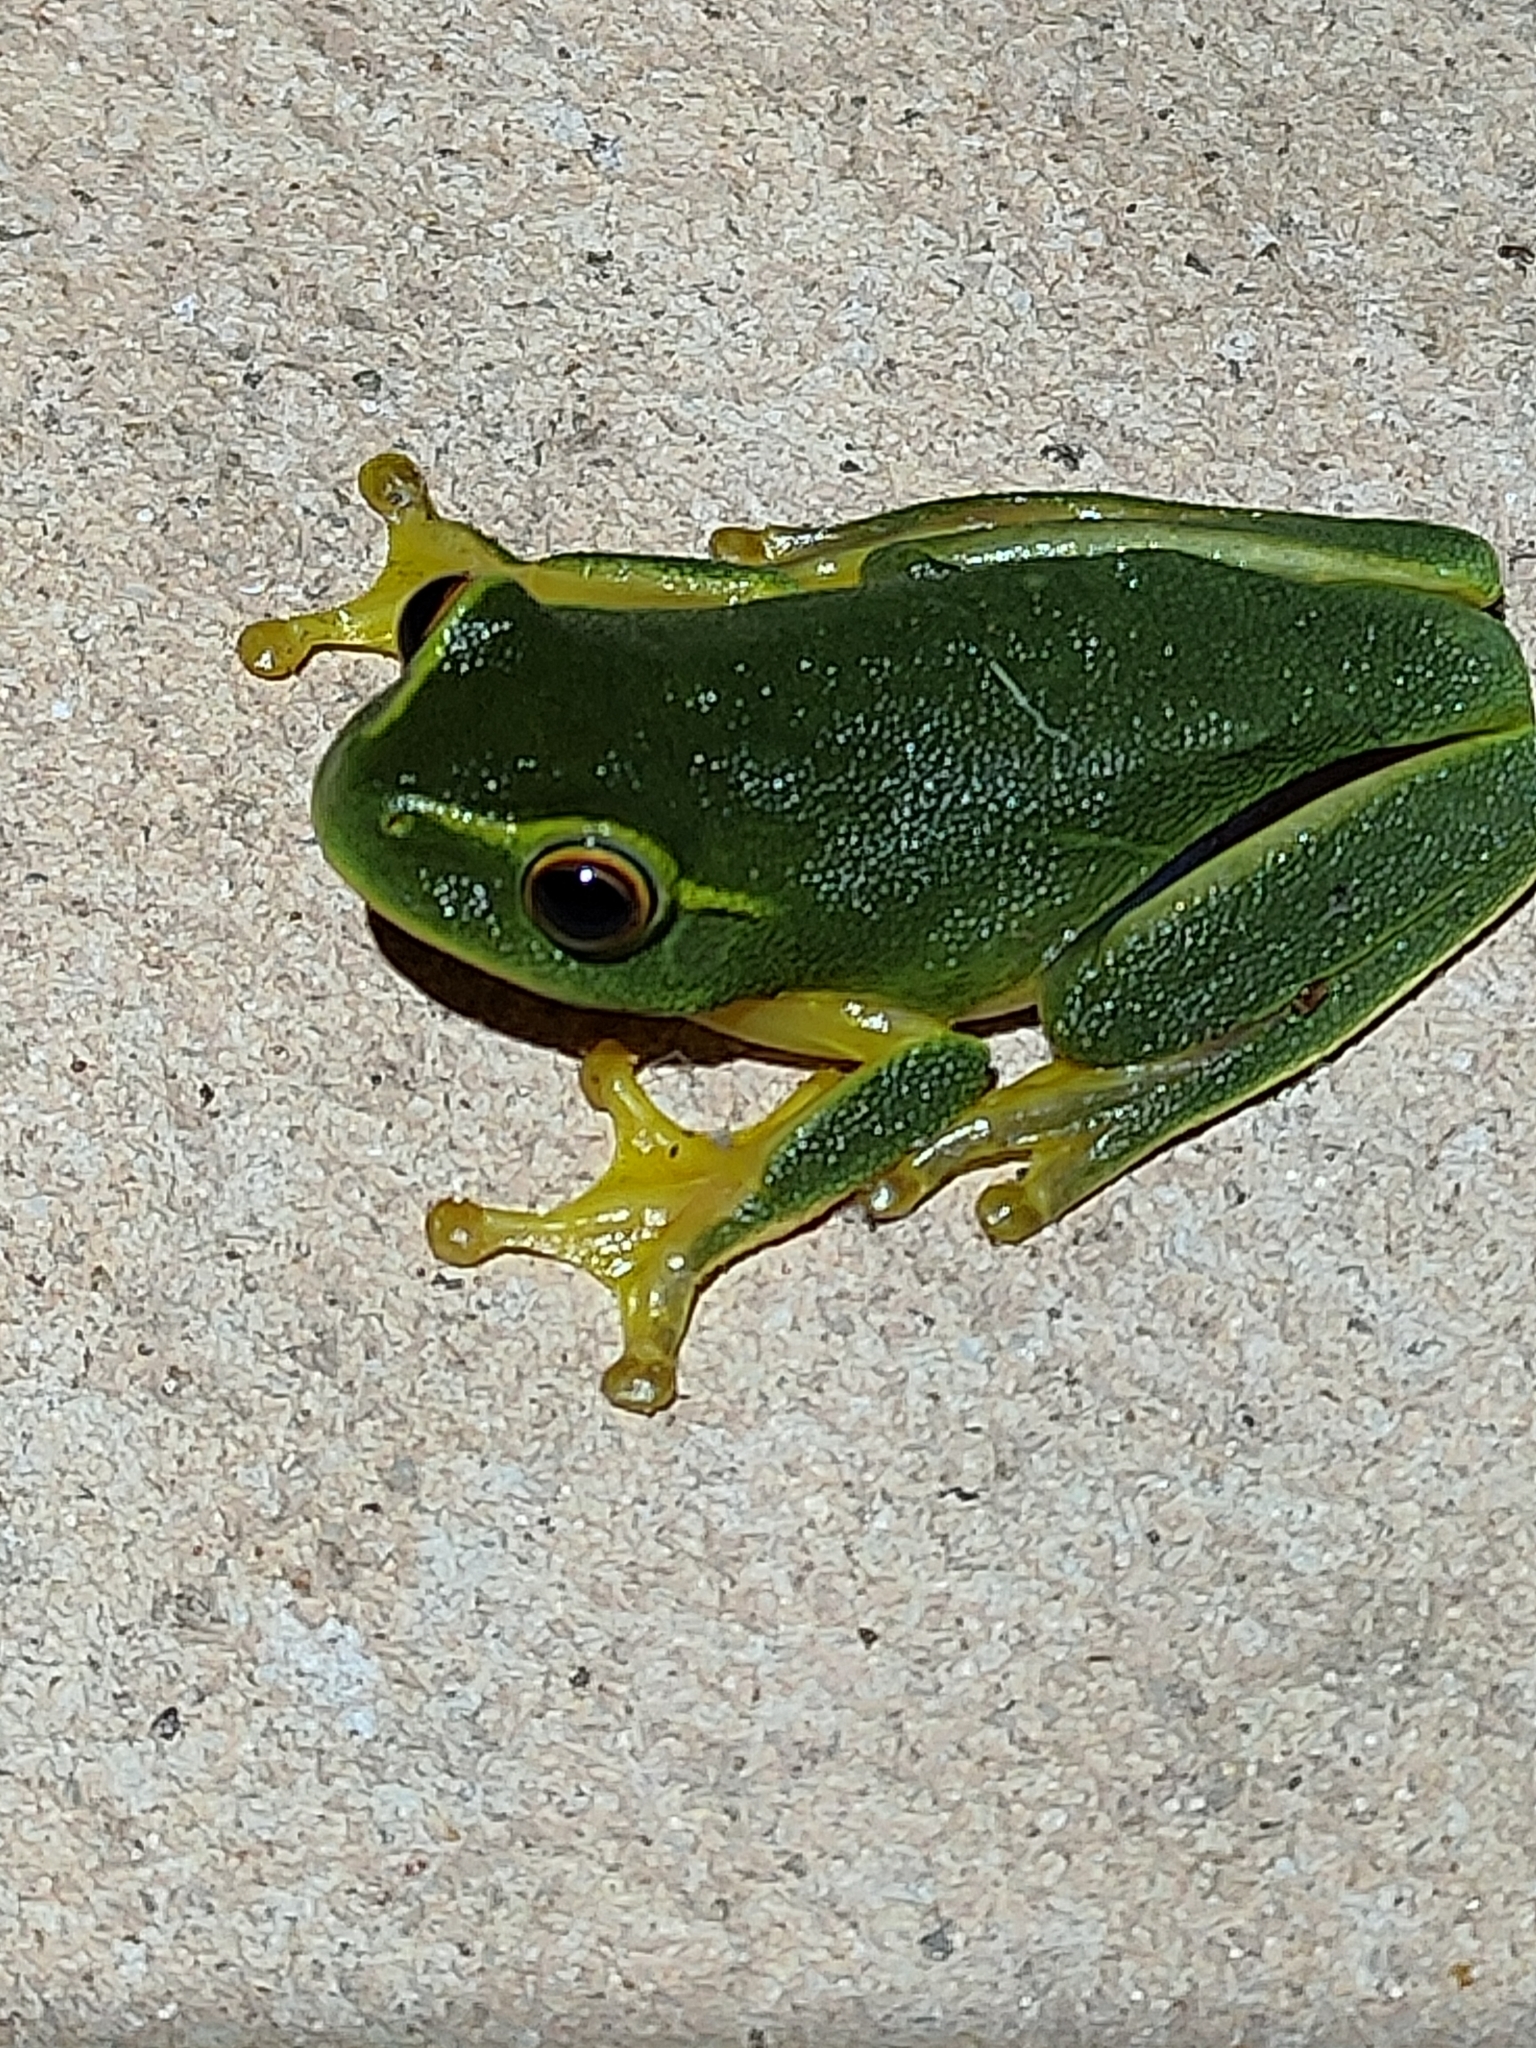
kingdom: Animalia
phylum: Chordata
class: Amphibia
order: Anura
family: Pelodryadidae
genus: Ranoidea
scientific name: Ranoidea gracilenta
